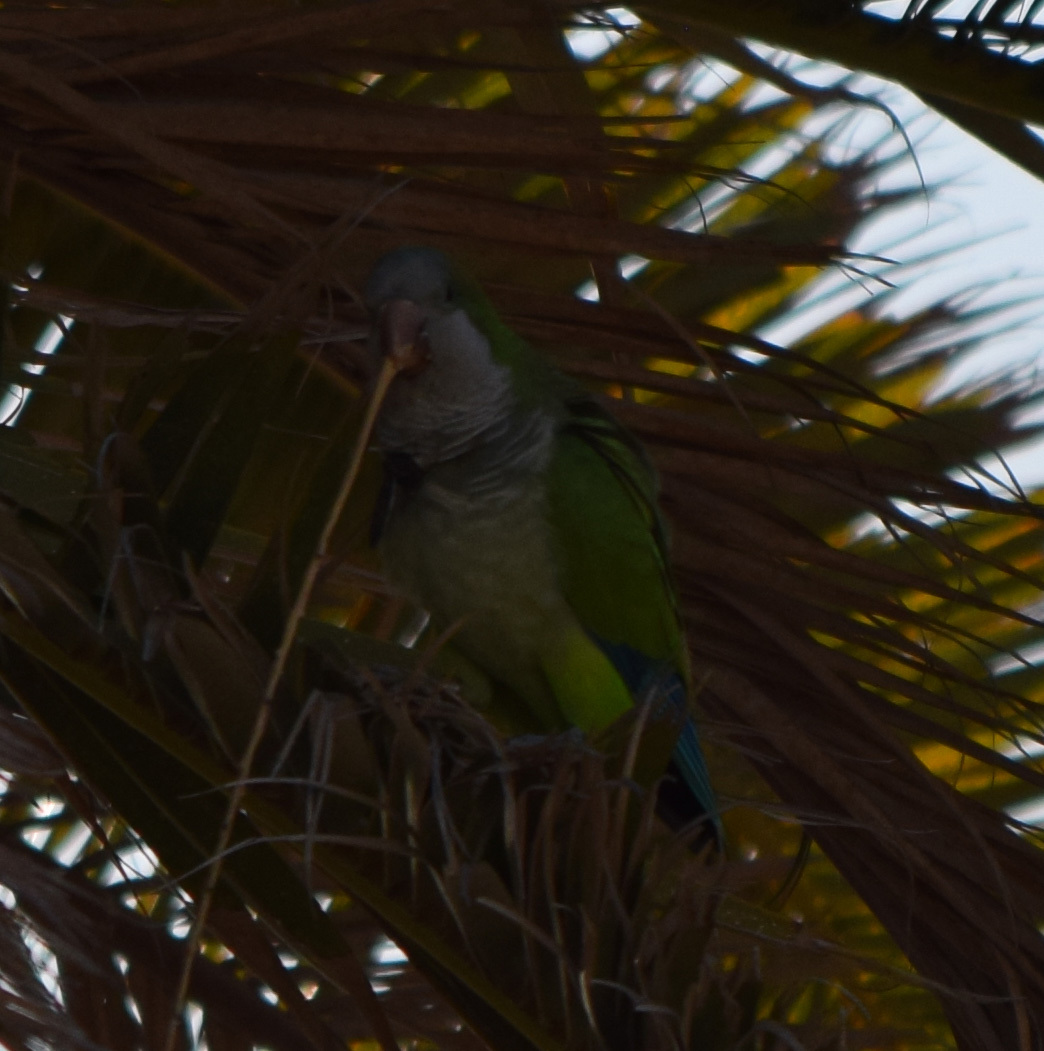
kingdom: Animalia
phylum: Chordata
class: Aves
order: Psittaciformes
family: Psittacidae
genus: Myiopsitta
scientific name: Myiopsitta monachus
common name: Monk parakeet
